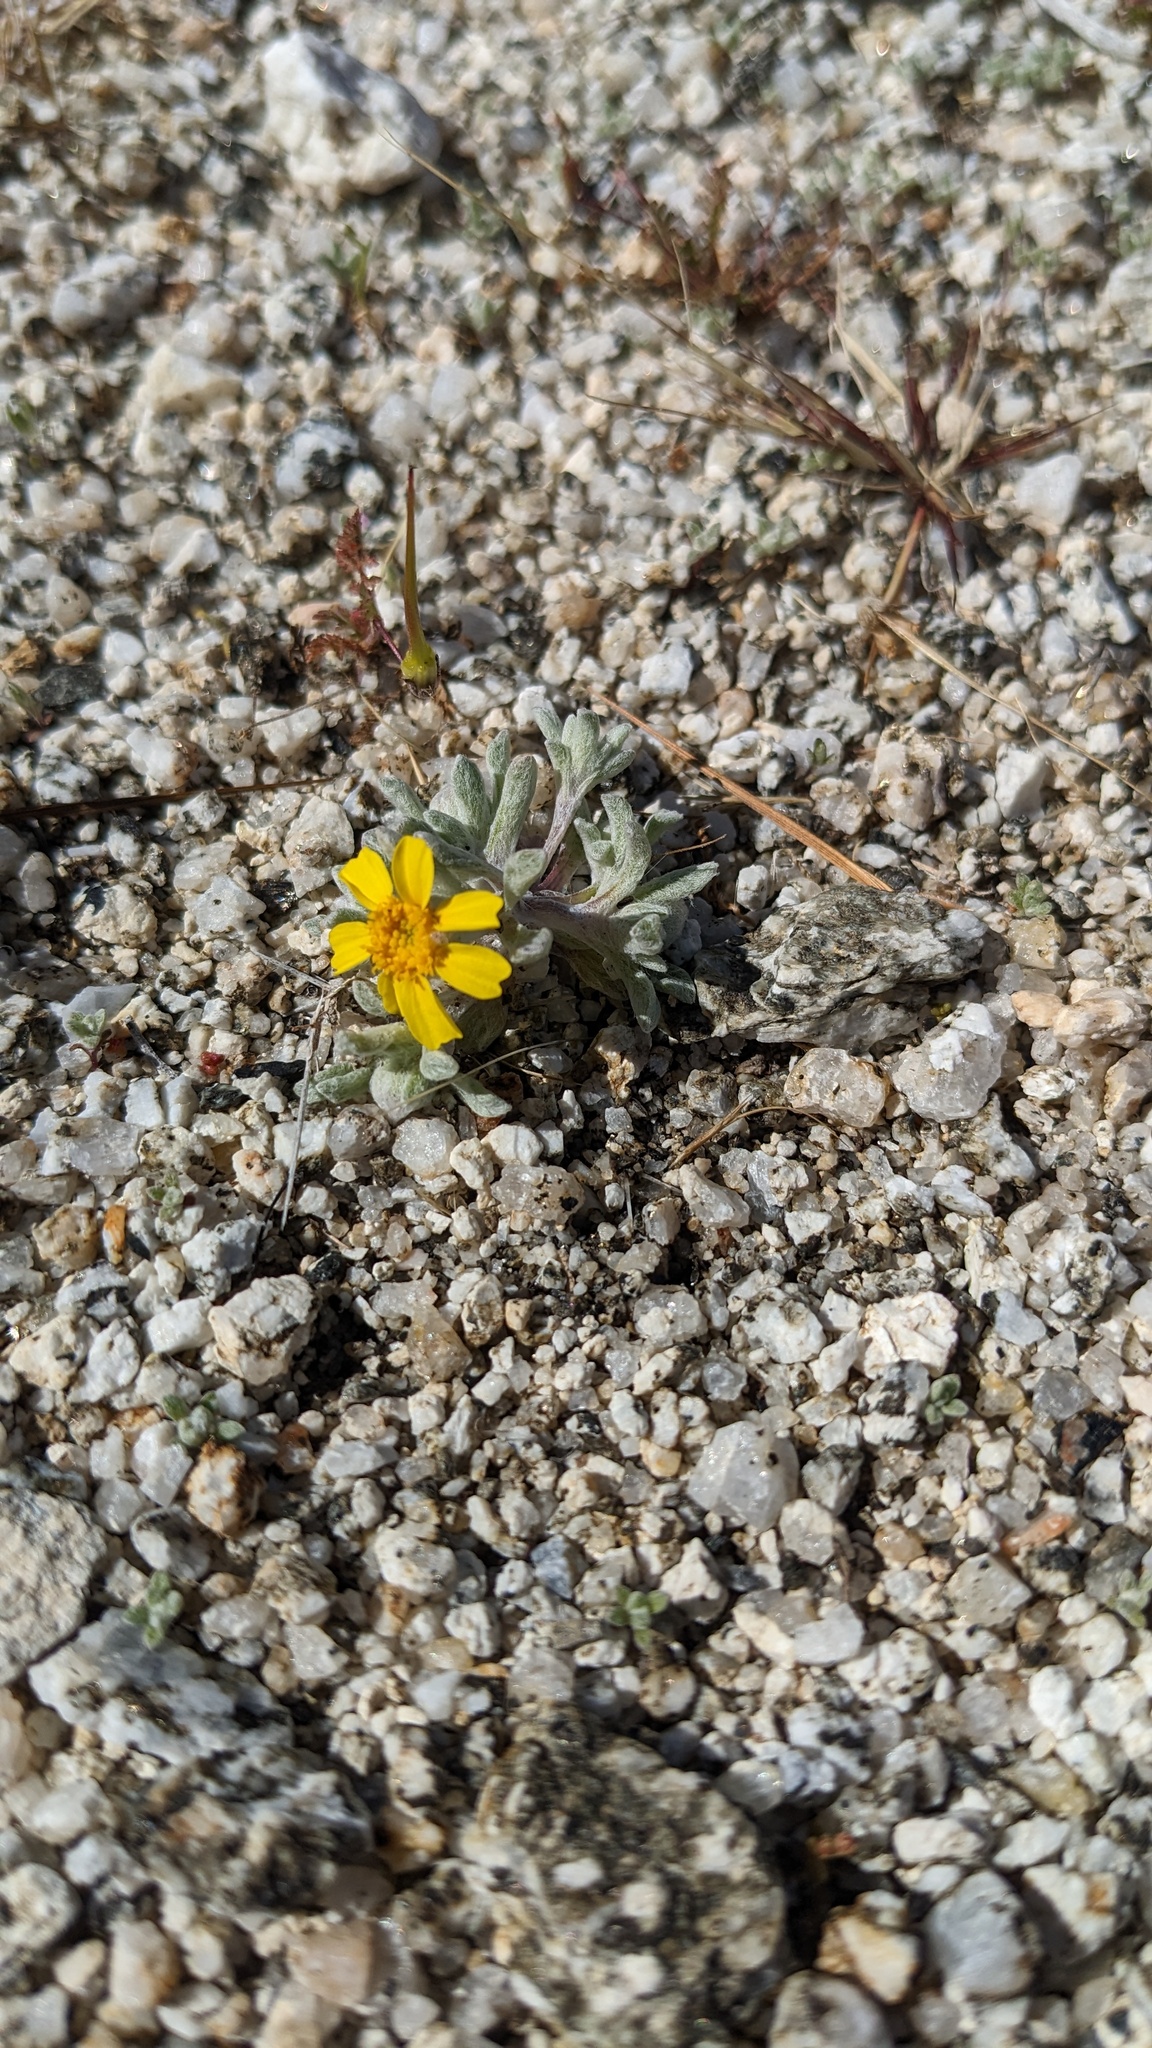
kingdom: Plantae
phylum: Tracheophyta
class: Magnoliopsida
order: Asterales
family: Asteraceae
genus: Eriophyllum
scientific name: Eriophyllum wallacei
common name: Wallace's woolly daisy
